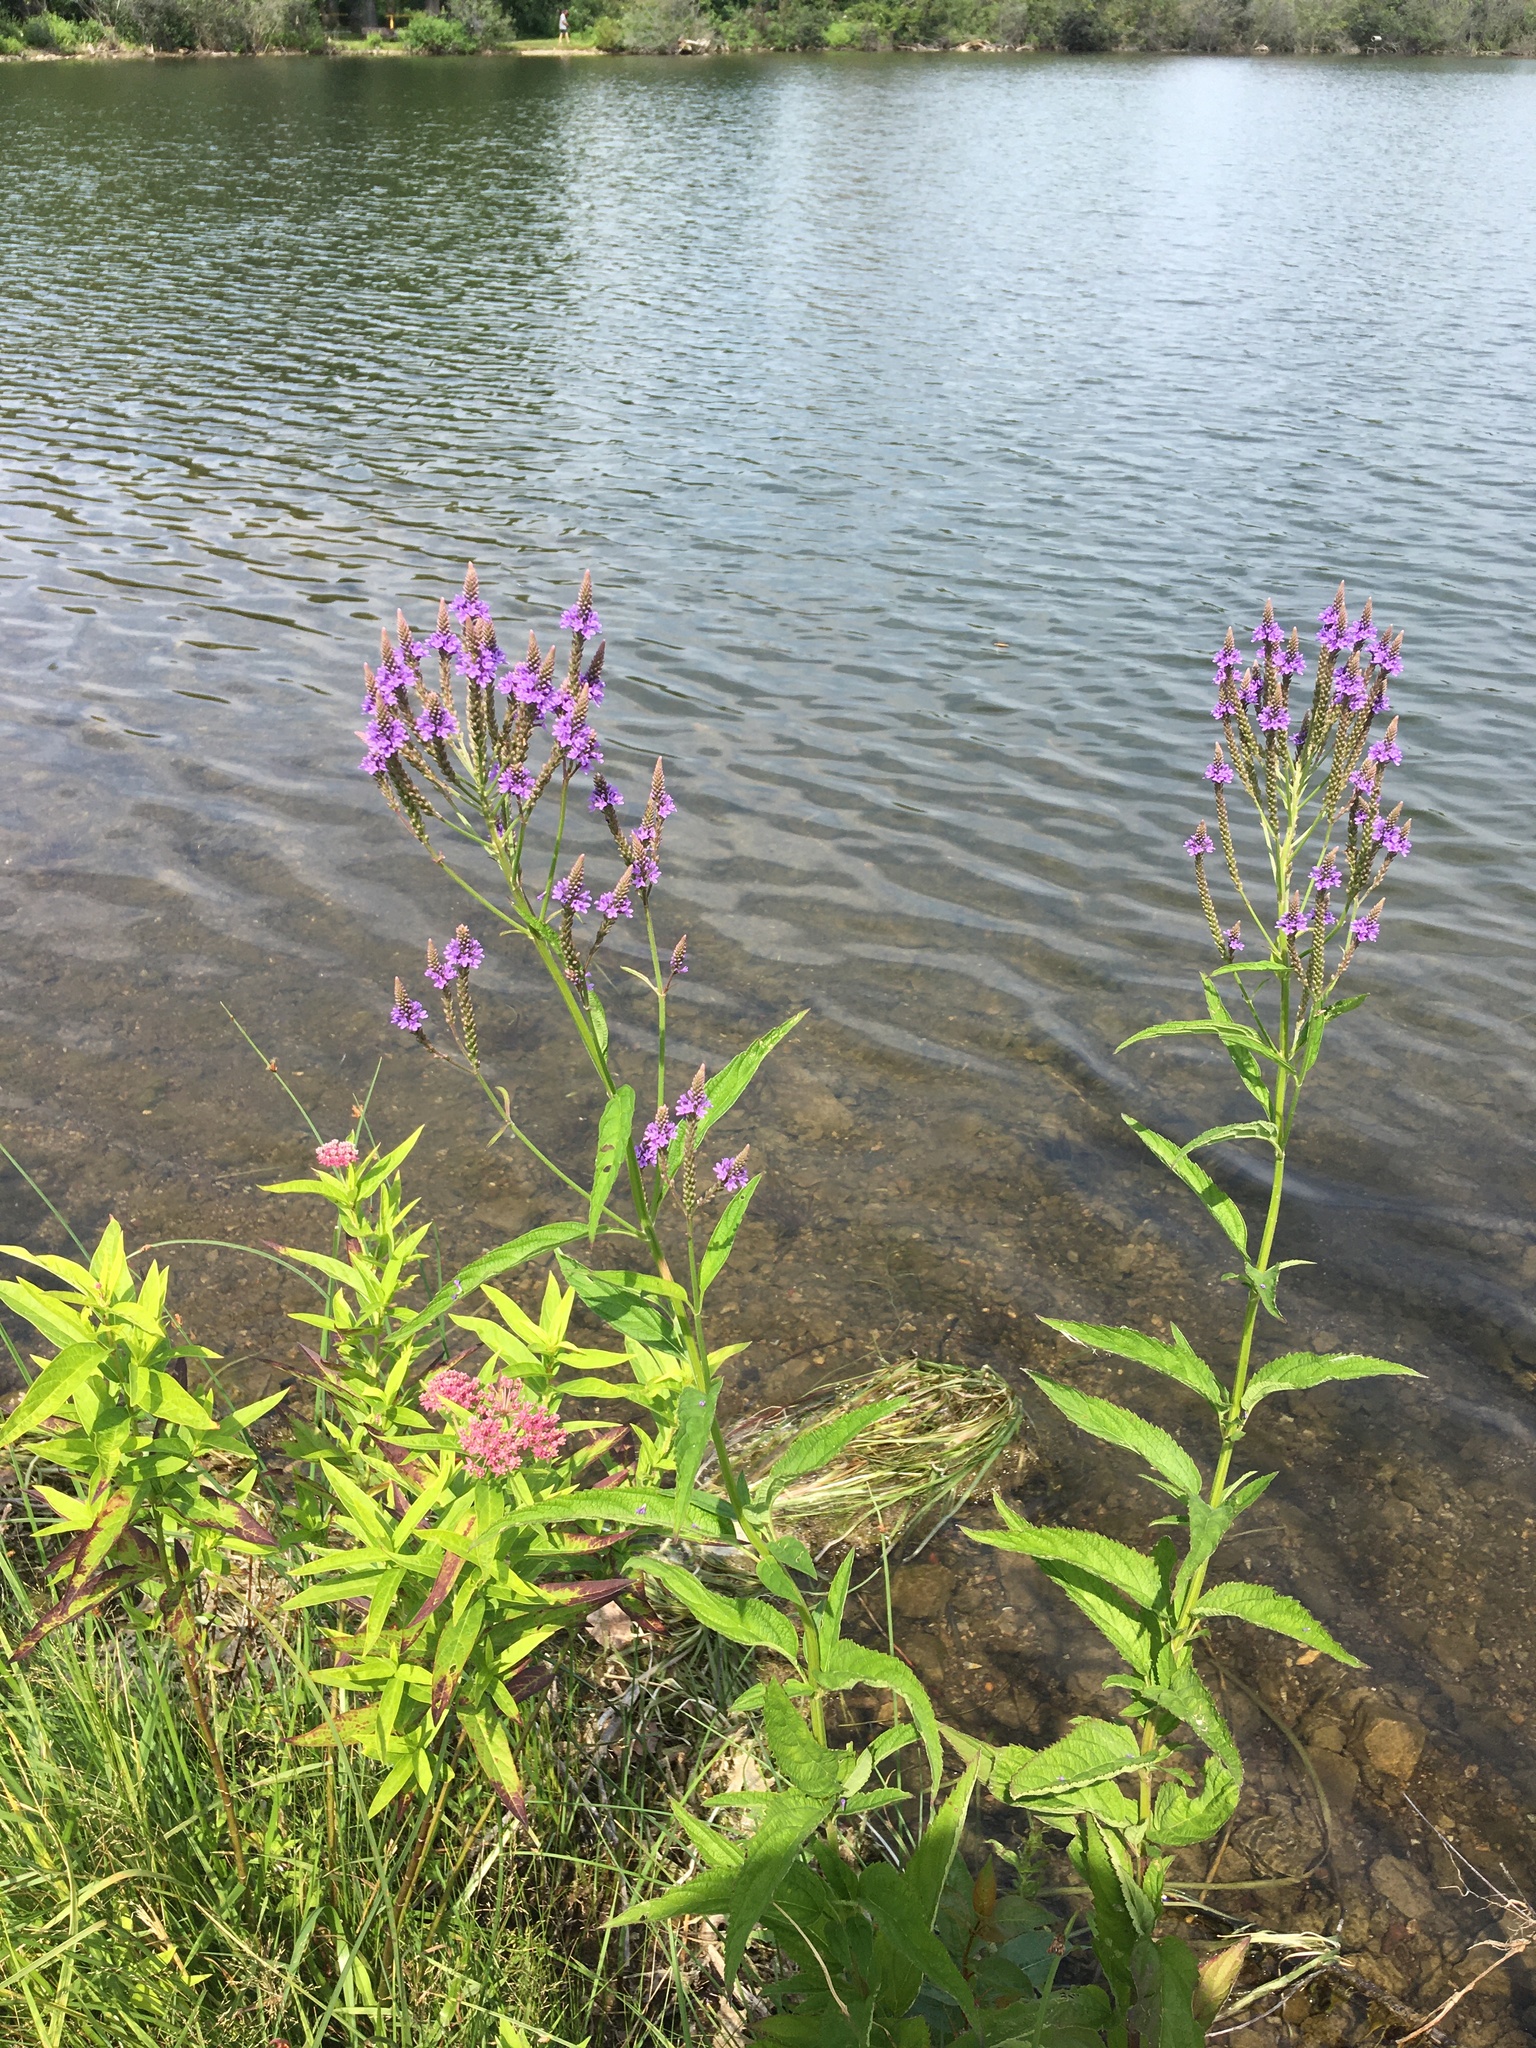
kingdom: Plantae
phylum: Tracheophyta
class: Magnoliopsida
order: Lamiales
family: Verbenaceae
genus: Verbena
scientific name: Verbena hastata
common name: American blue vervain
